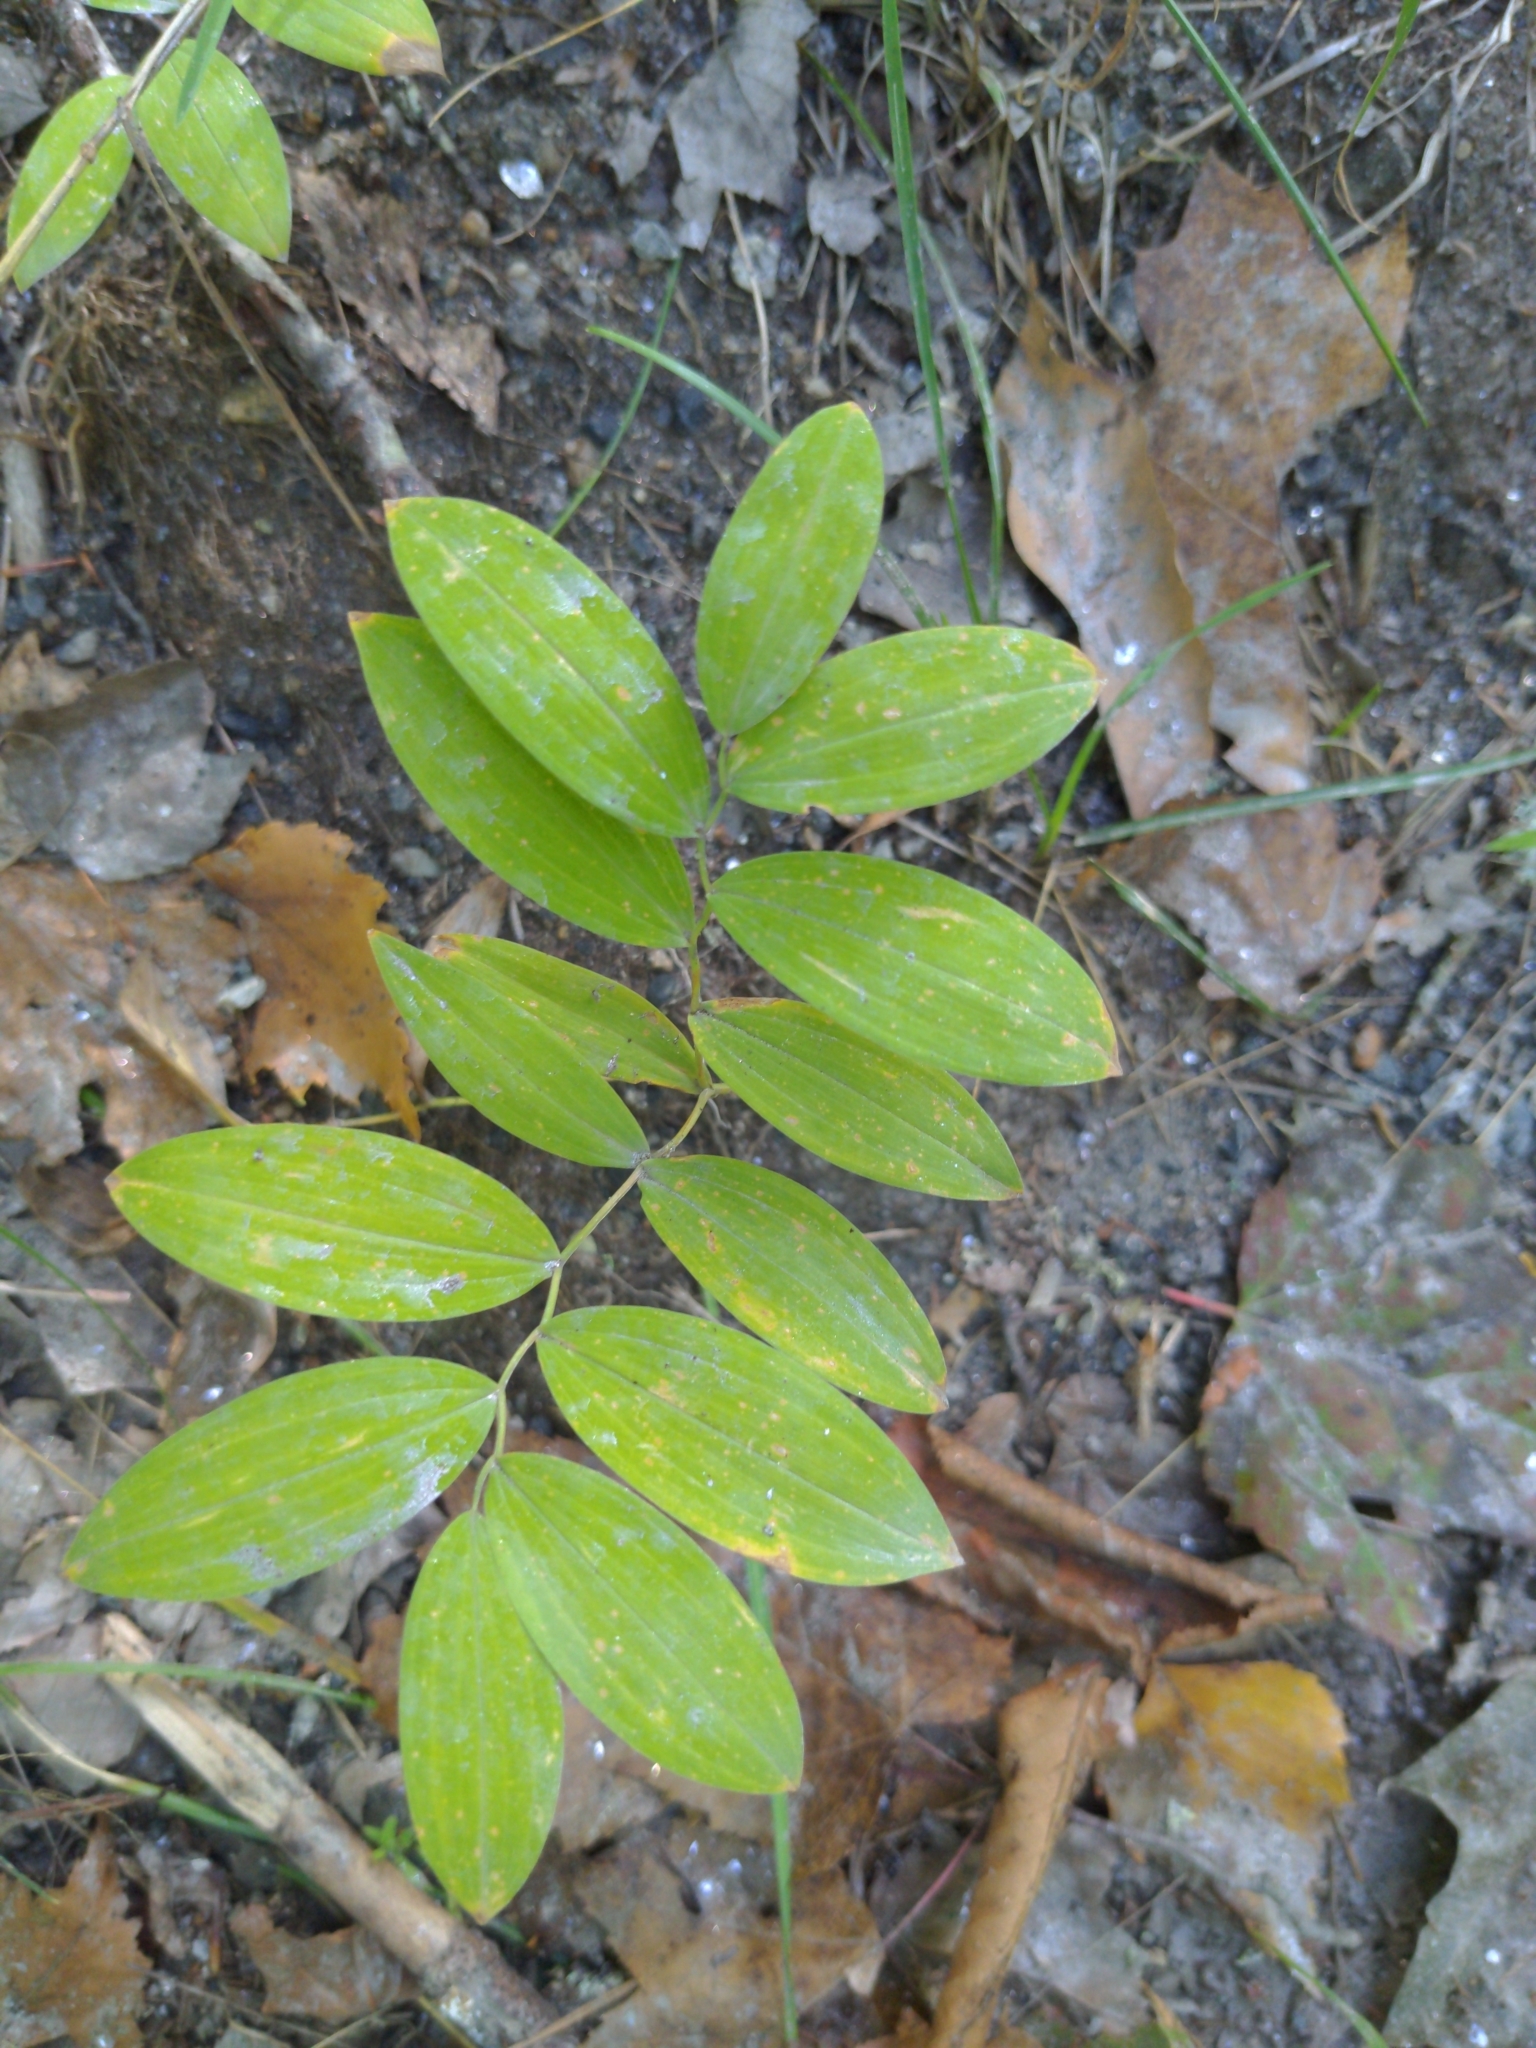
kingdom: Plantae
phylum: Tracheophyta
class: Liliopsida
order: Liliales
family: Colchicaceae
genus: Uvularia
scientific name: Uvularia sessilifolia
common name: Straw-lily
